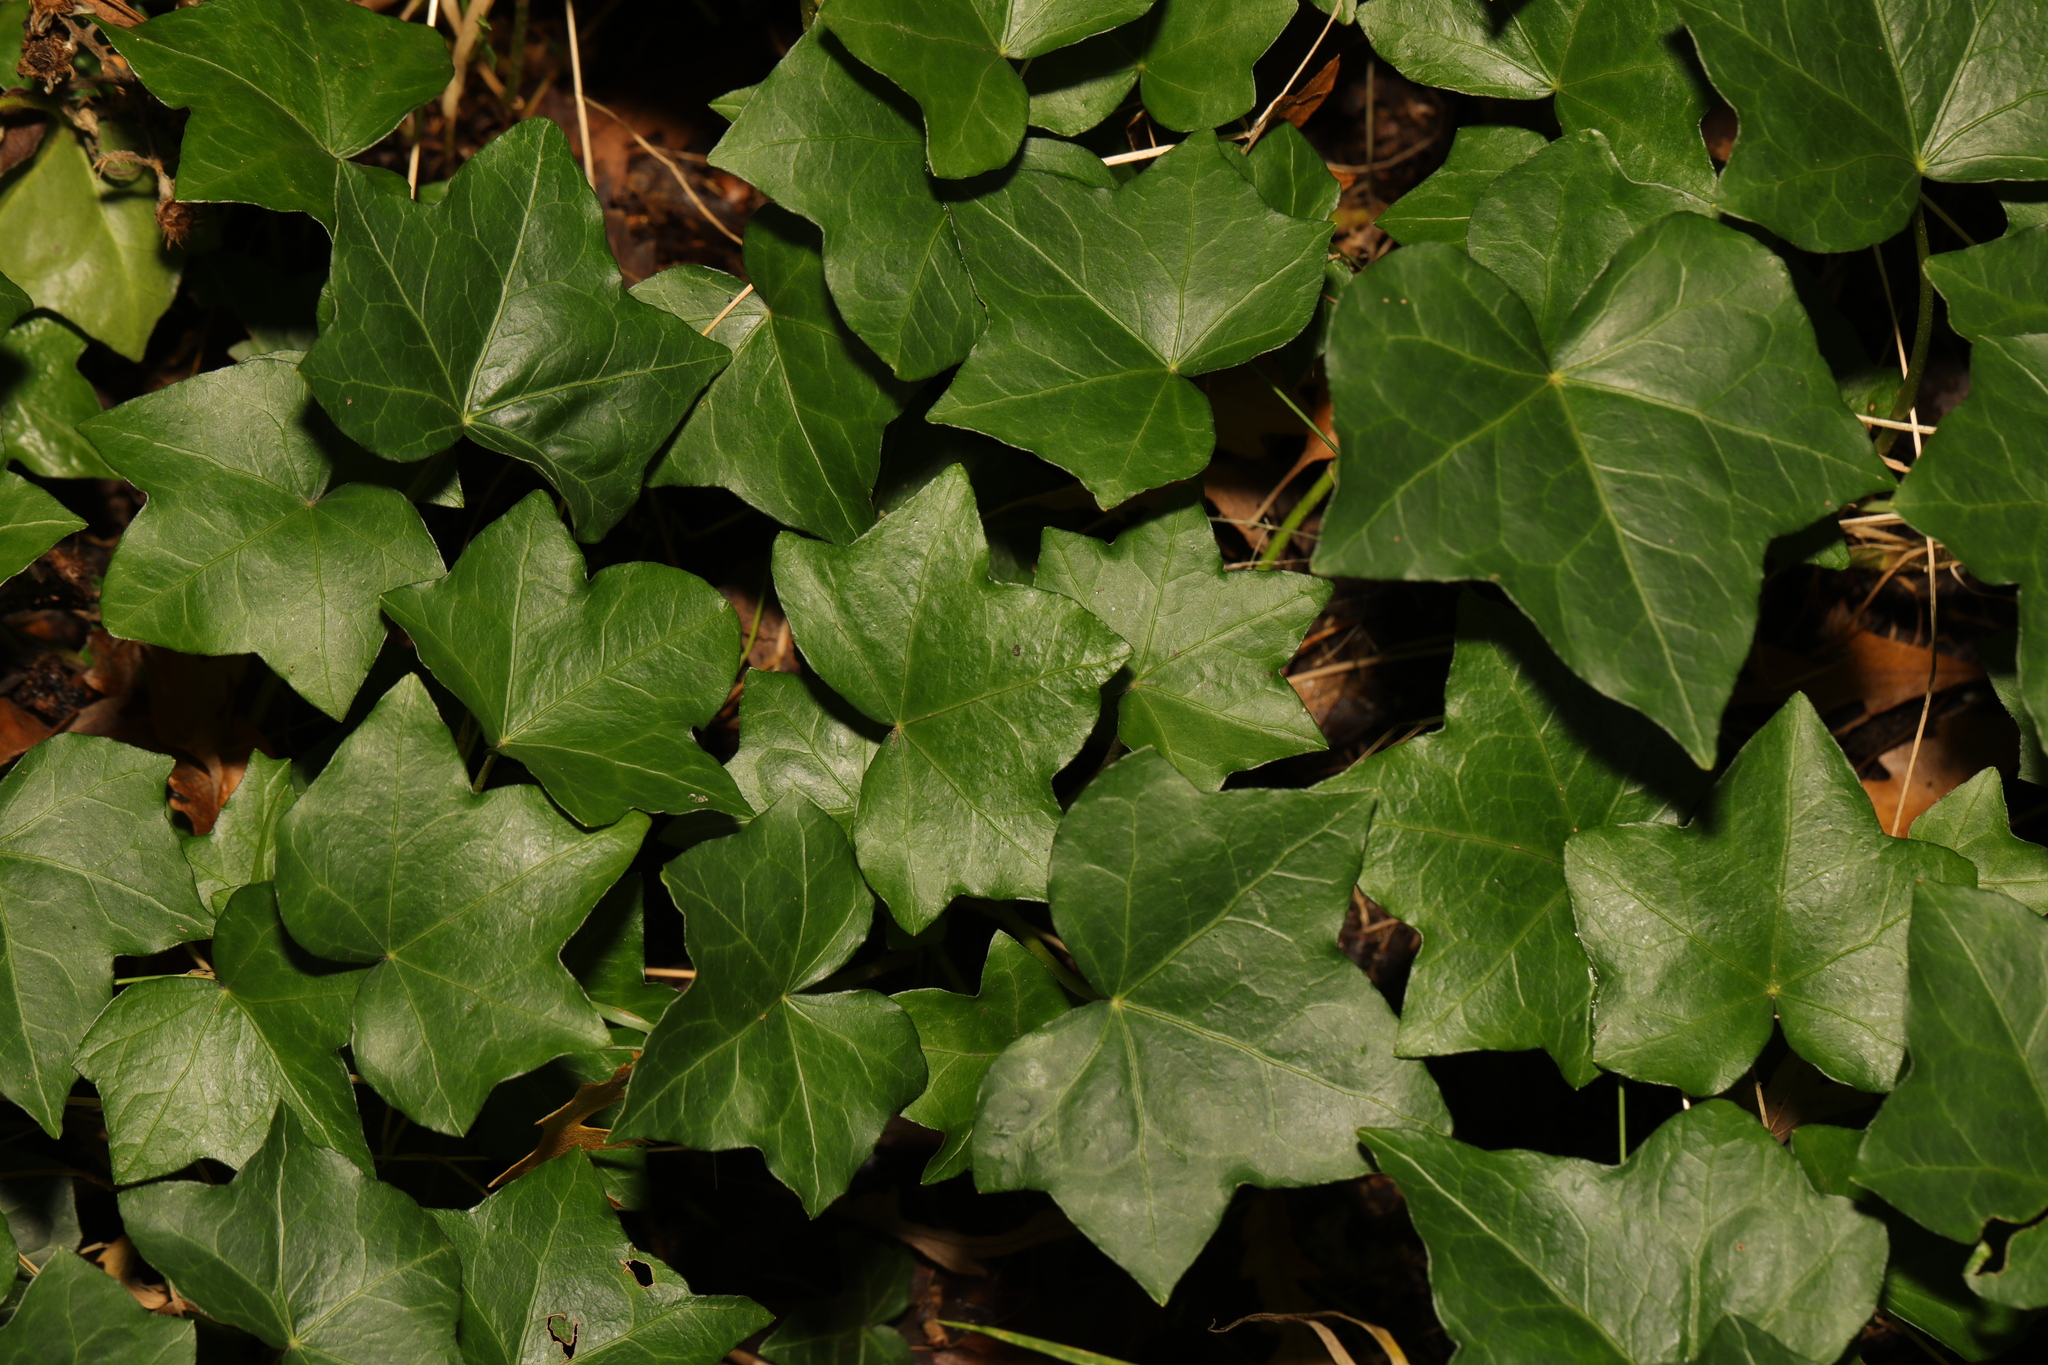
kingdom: Plantae
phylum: Tracheophyta
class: Magnoliopsida
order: Apiales
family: Araliaceae
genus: Hedera
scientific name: Hedera helix
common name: Ivy
